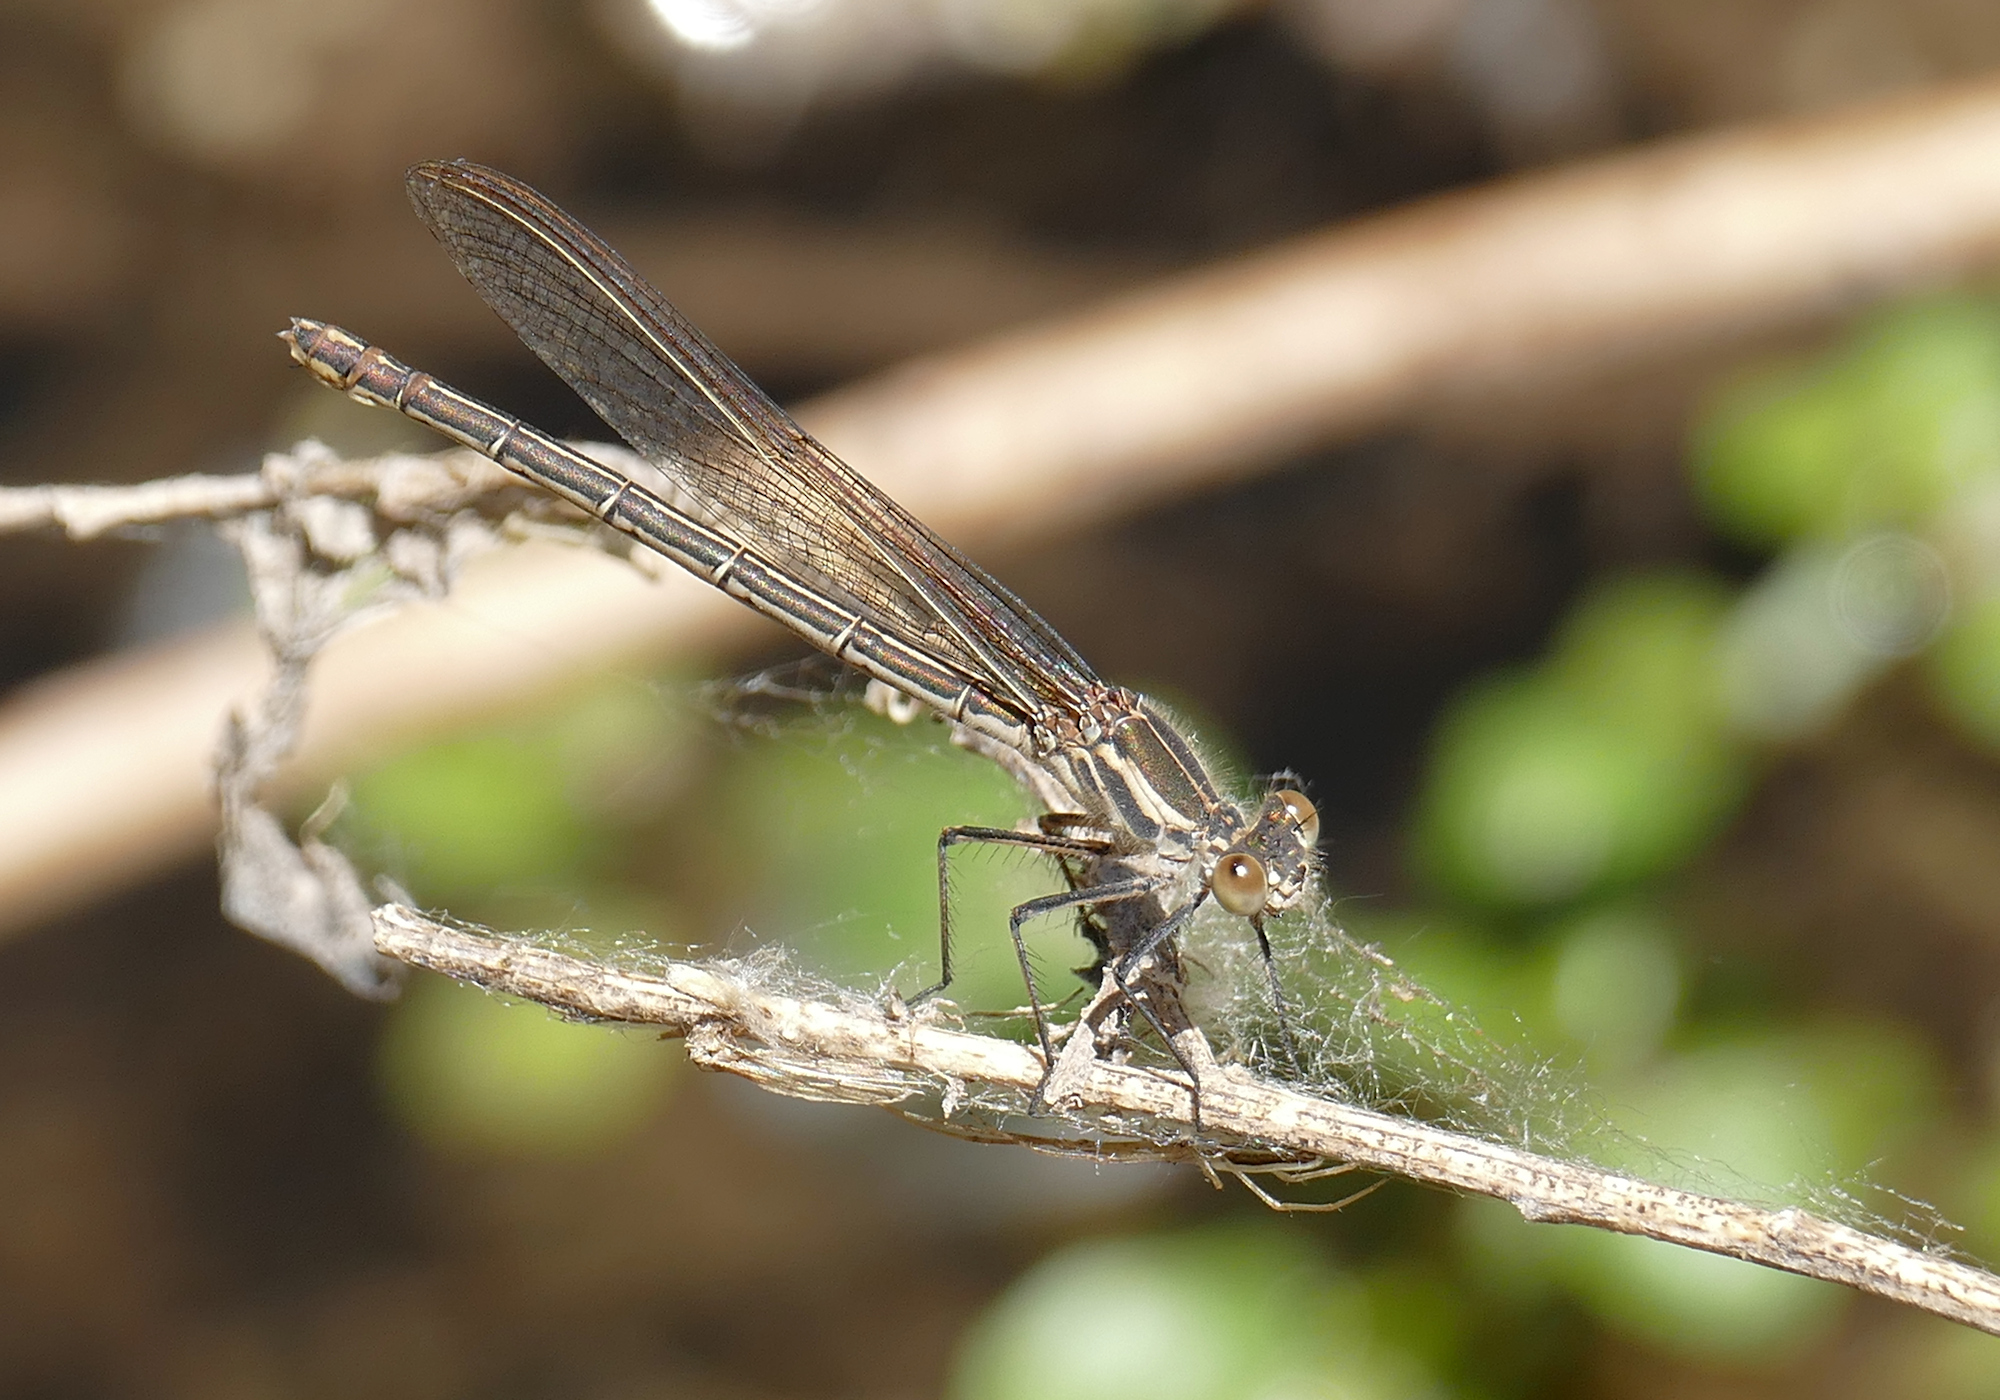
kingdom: Animalia
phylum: Arthropoda
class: Insecta
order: Odonata
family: Calopterygidae
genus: Hetaerina
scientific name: Hetaerina americana
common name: American rubyspot
